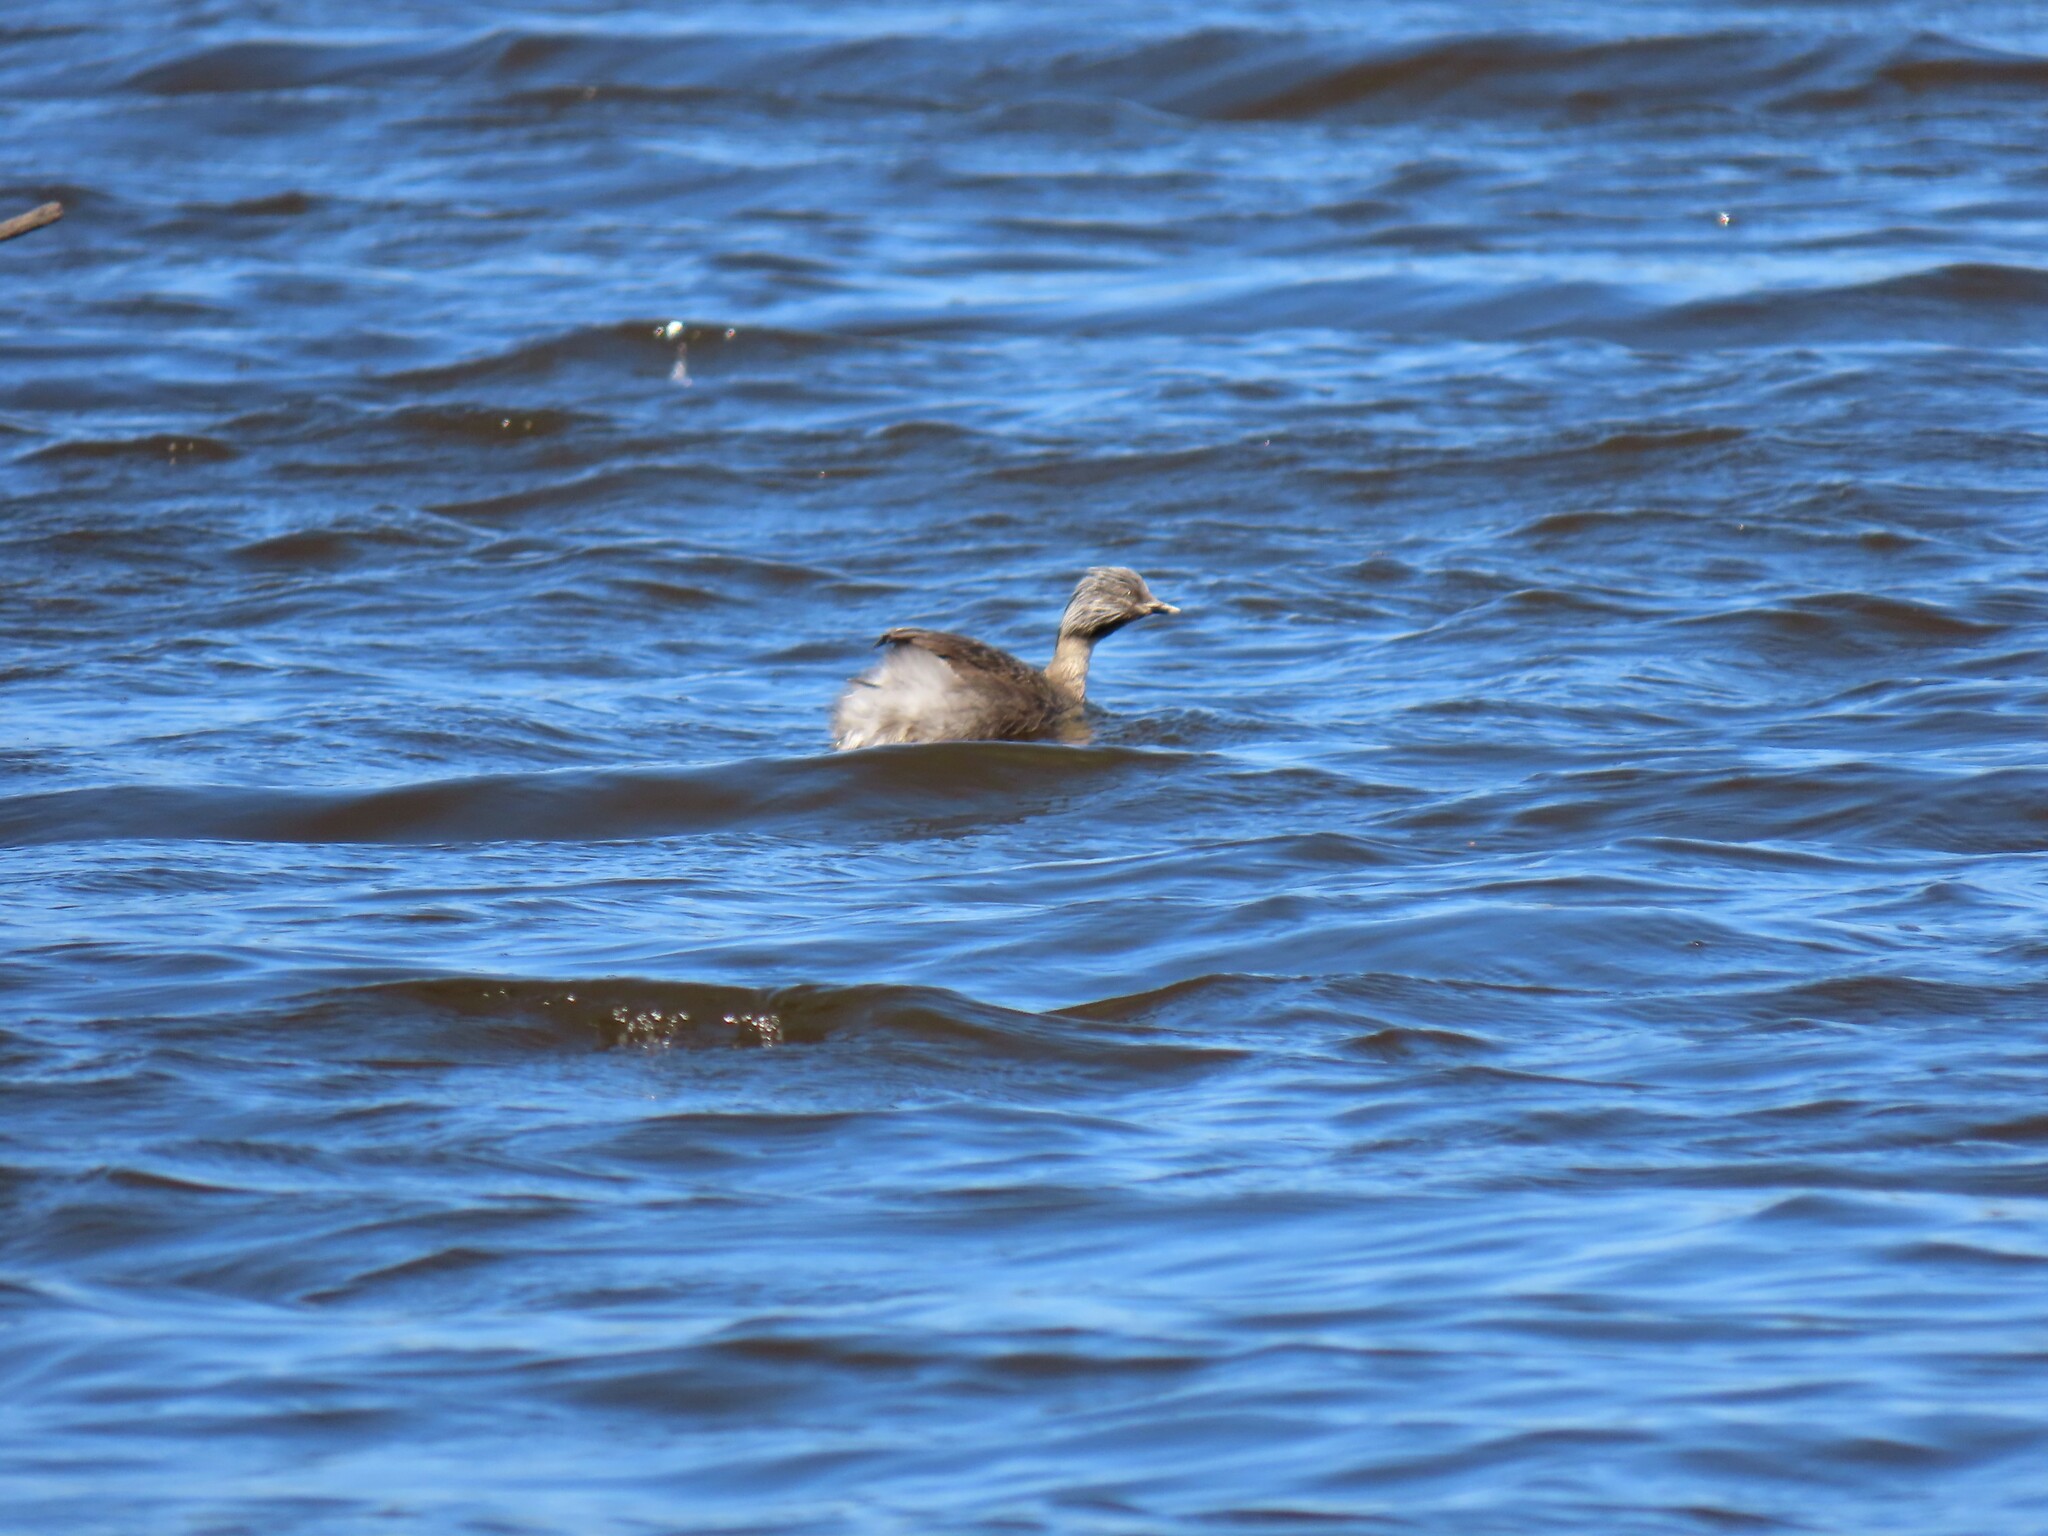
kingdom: Animalia
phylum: Chordata
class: Aves
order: Podicipediformes
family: Podicipedidae
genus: Poliocephalus
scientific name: Poliocephalus poliocephalus
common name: Hoary-headed grebe
